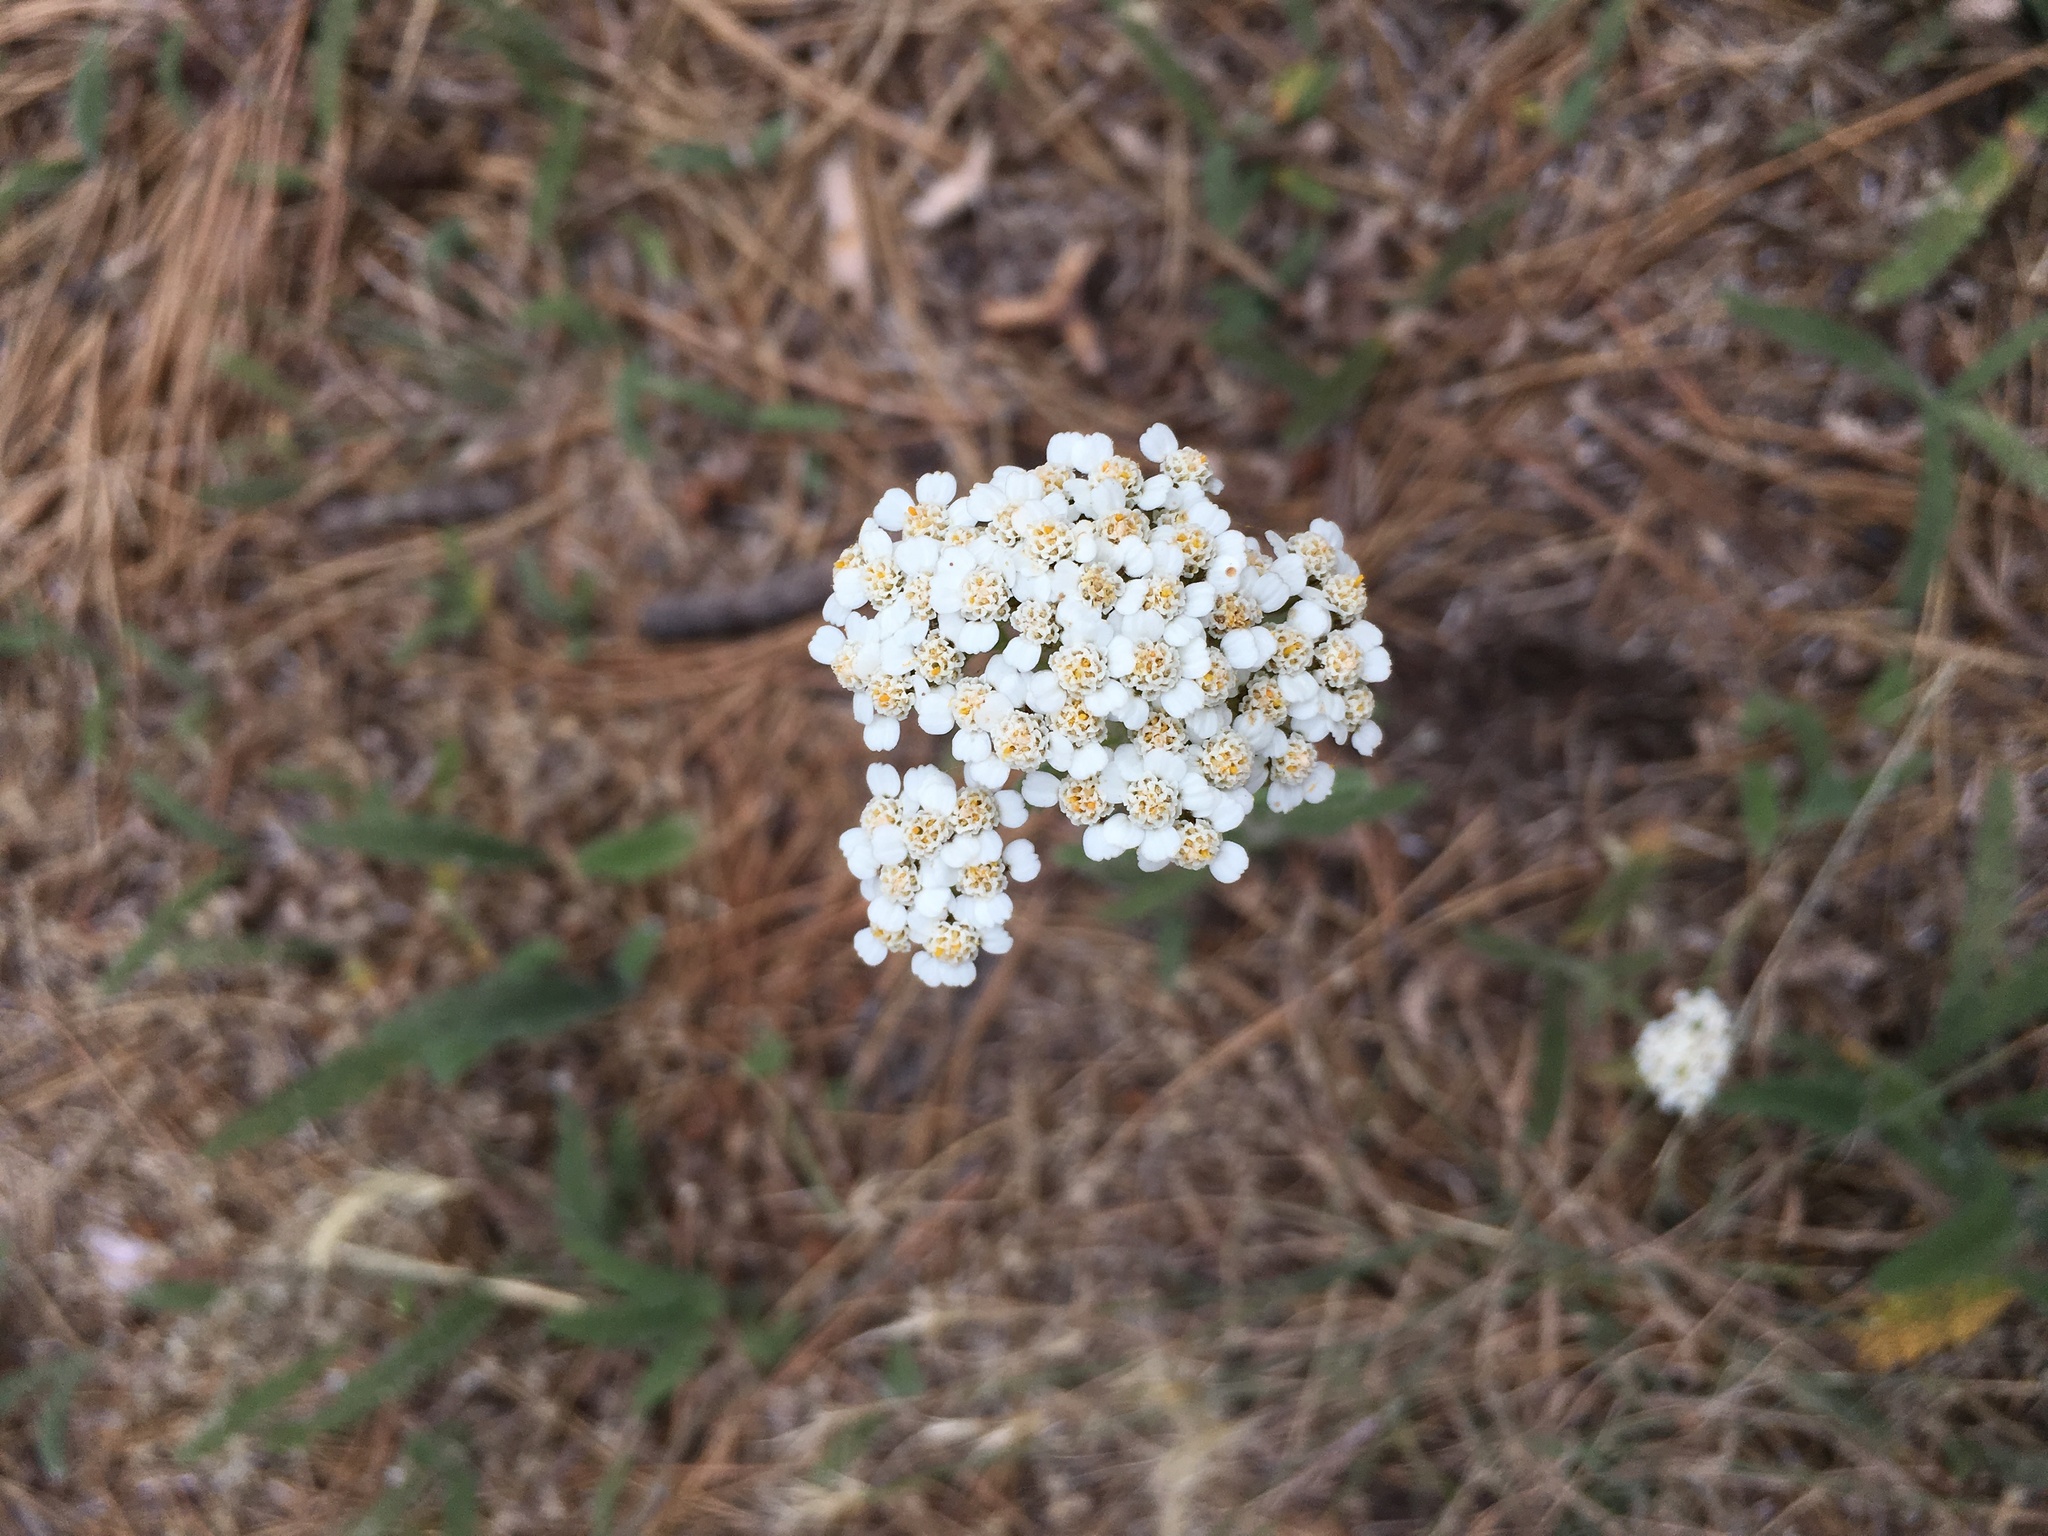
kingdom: Plantae
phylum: Tracheophyta
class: Magnoliopsida
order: Asterales
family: Asteraceae
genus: Achillea
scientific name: Achillea millefolium
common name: Yarrow
